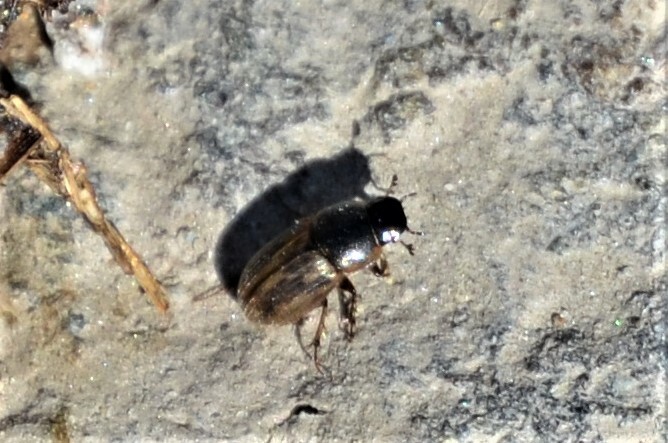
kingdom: Animalia
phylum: Arthropoda
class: Insecta
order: Coleoptera
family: Scarabaeidae
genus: Melinopterus
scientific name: Melinopterus prodromus
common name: Spring small dung beetle
